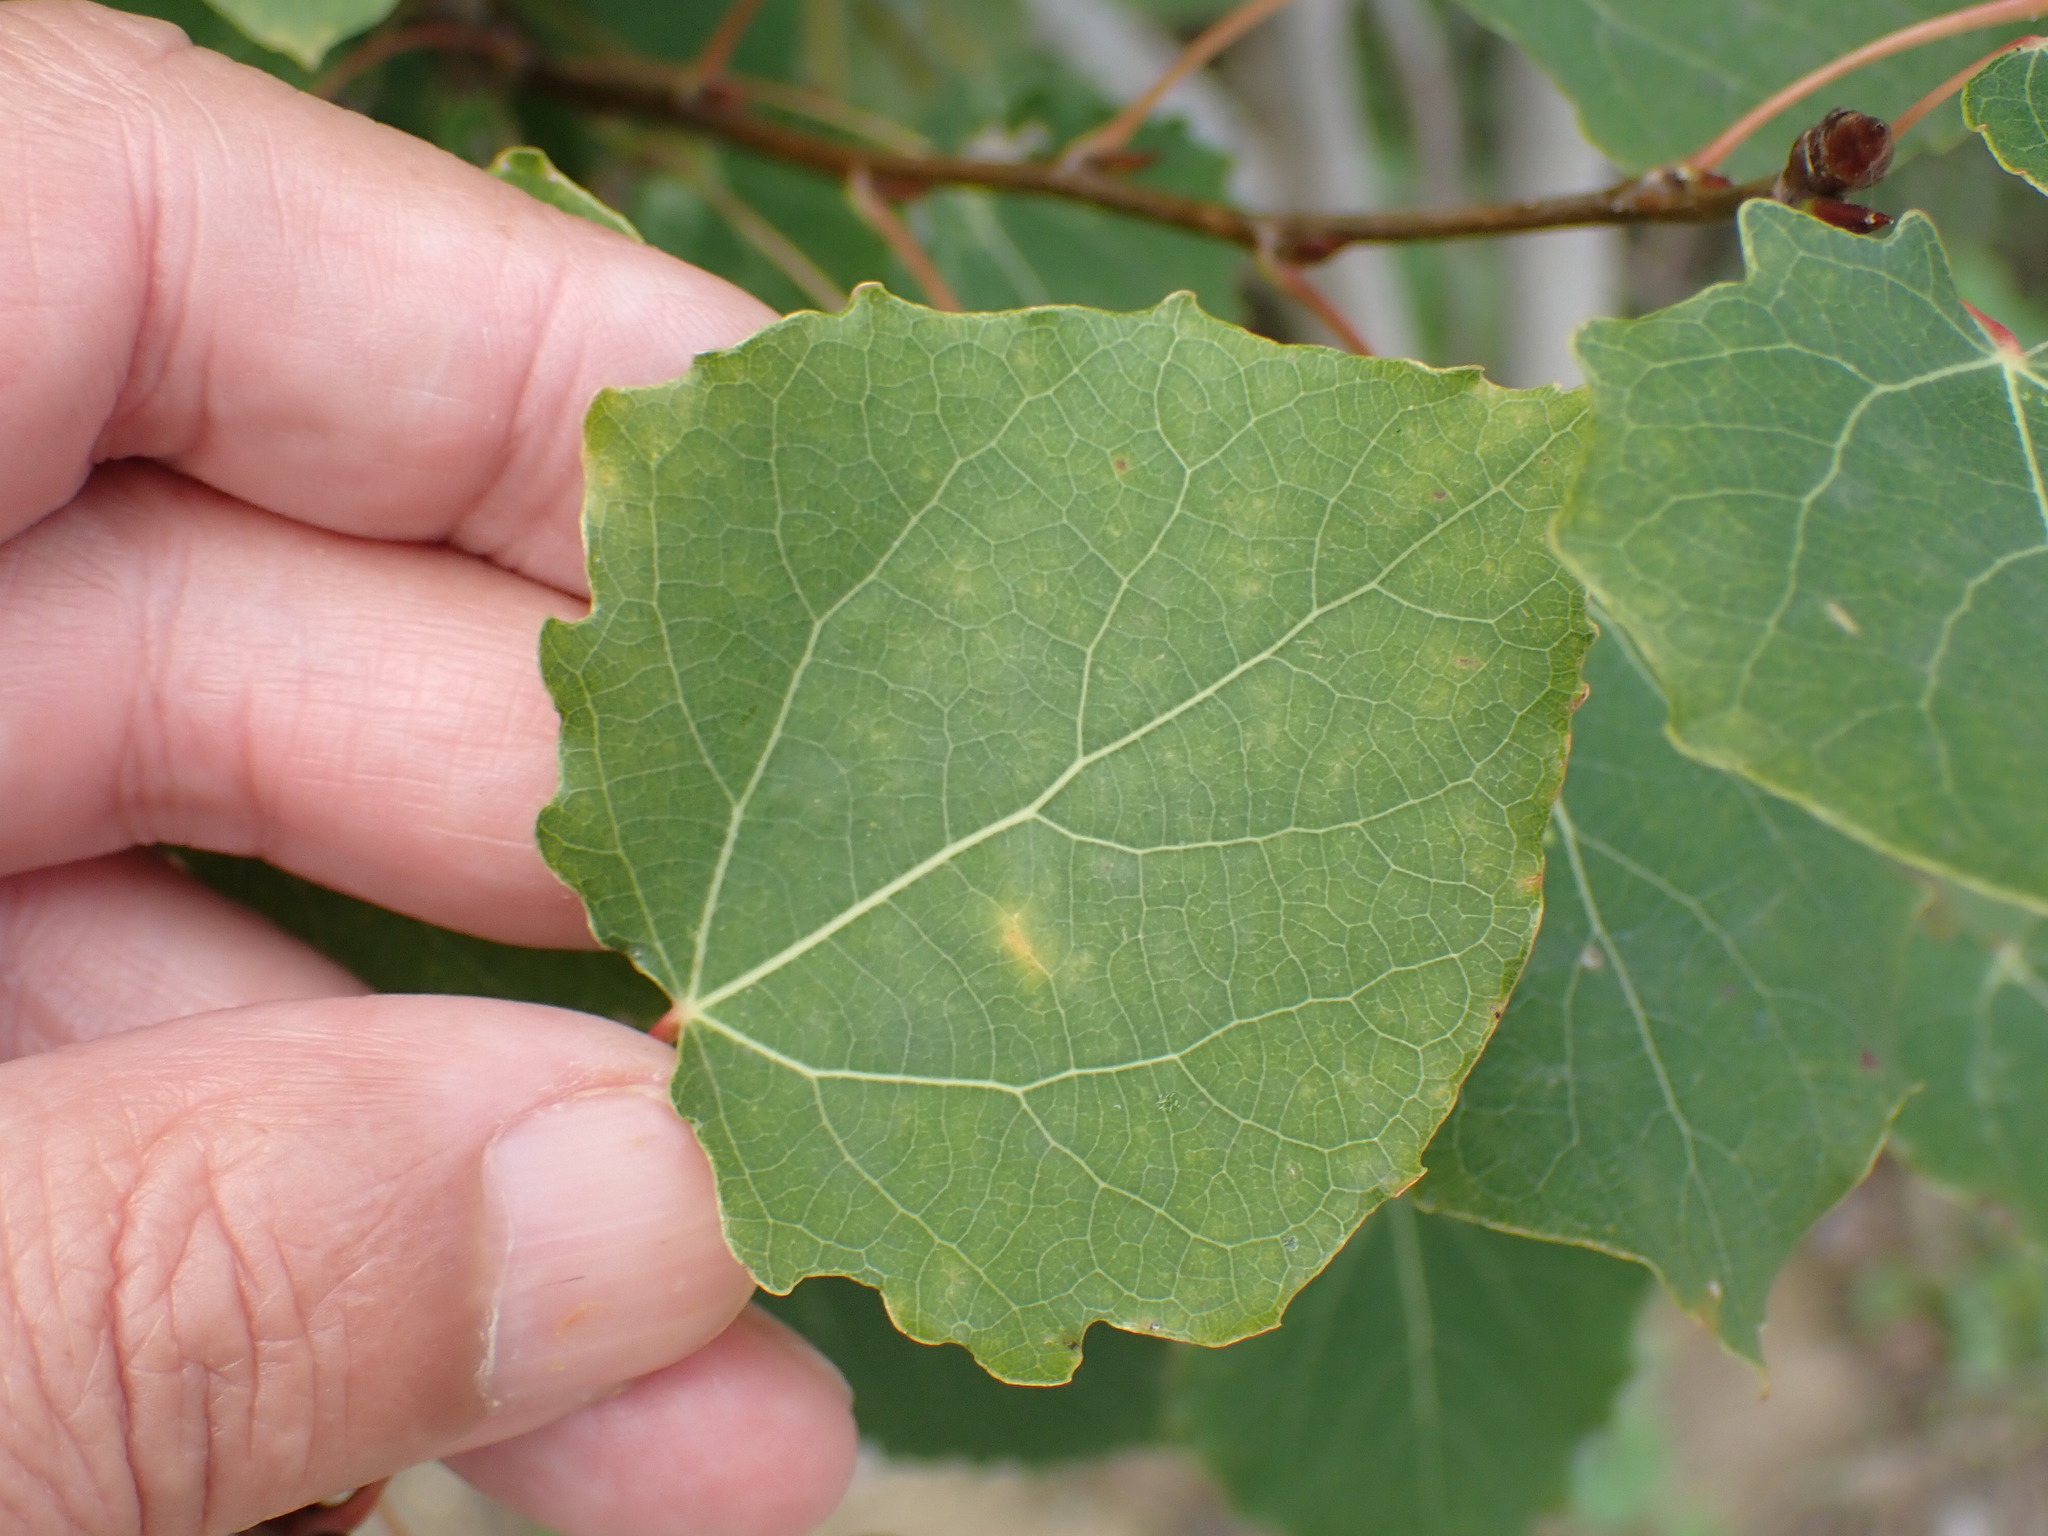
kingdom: Plantae
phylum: Tracheophyta
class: Magnoliopsida
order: Malpighiales
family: Salicaceae
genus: Populus
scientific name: Populus tremula
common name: European aspen
